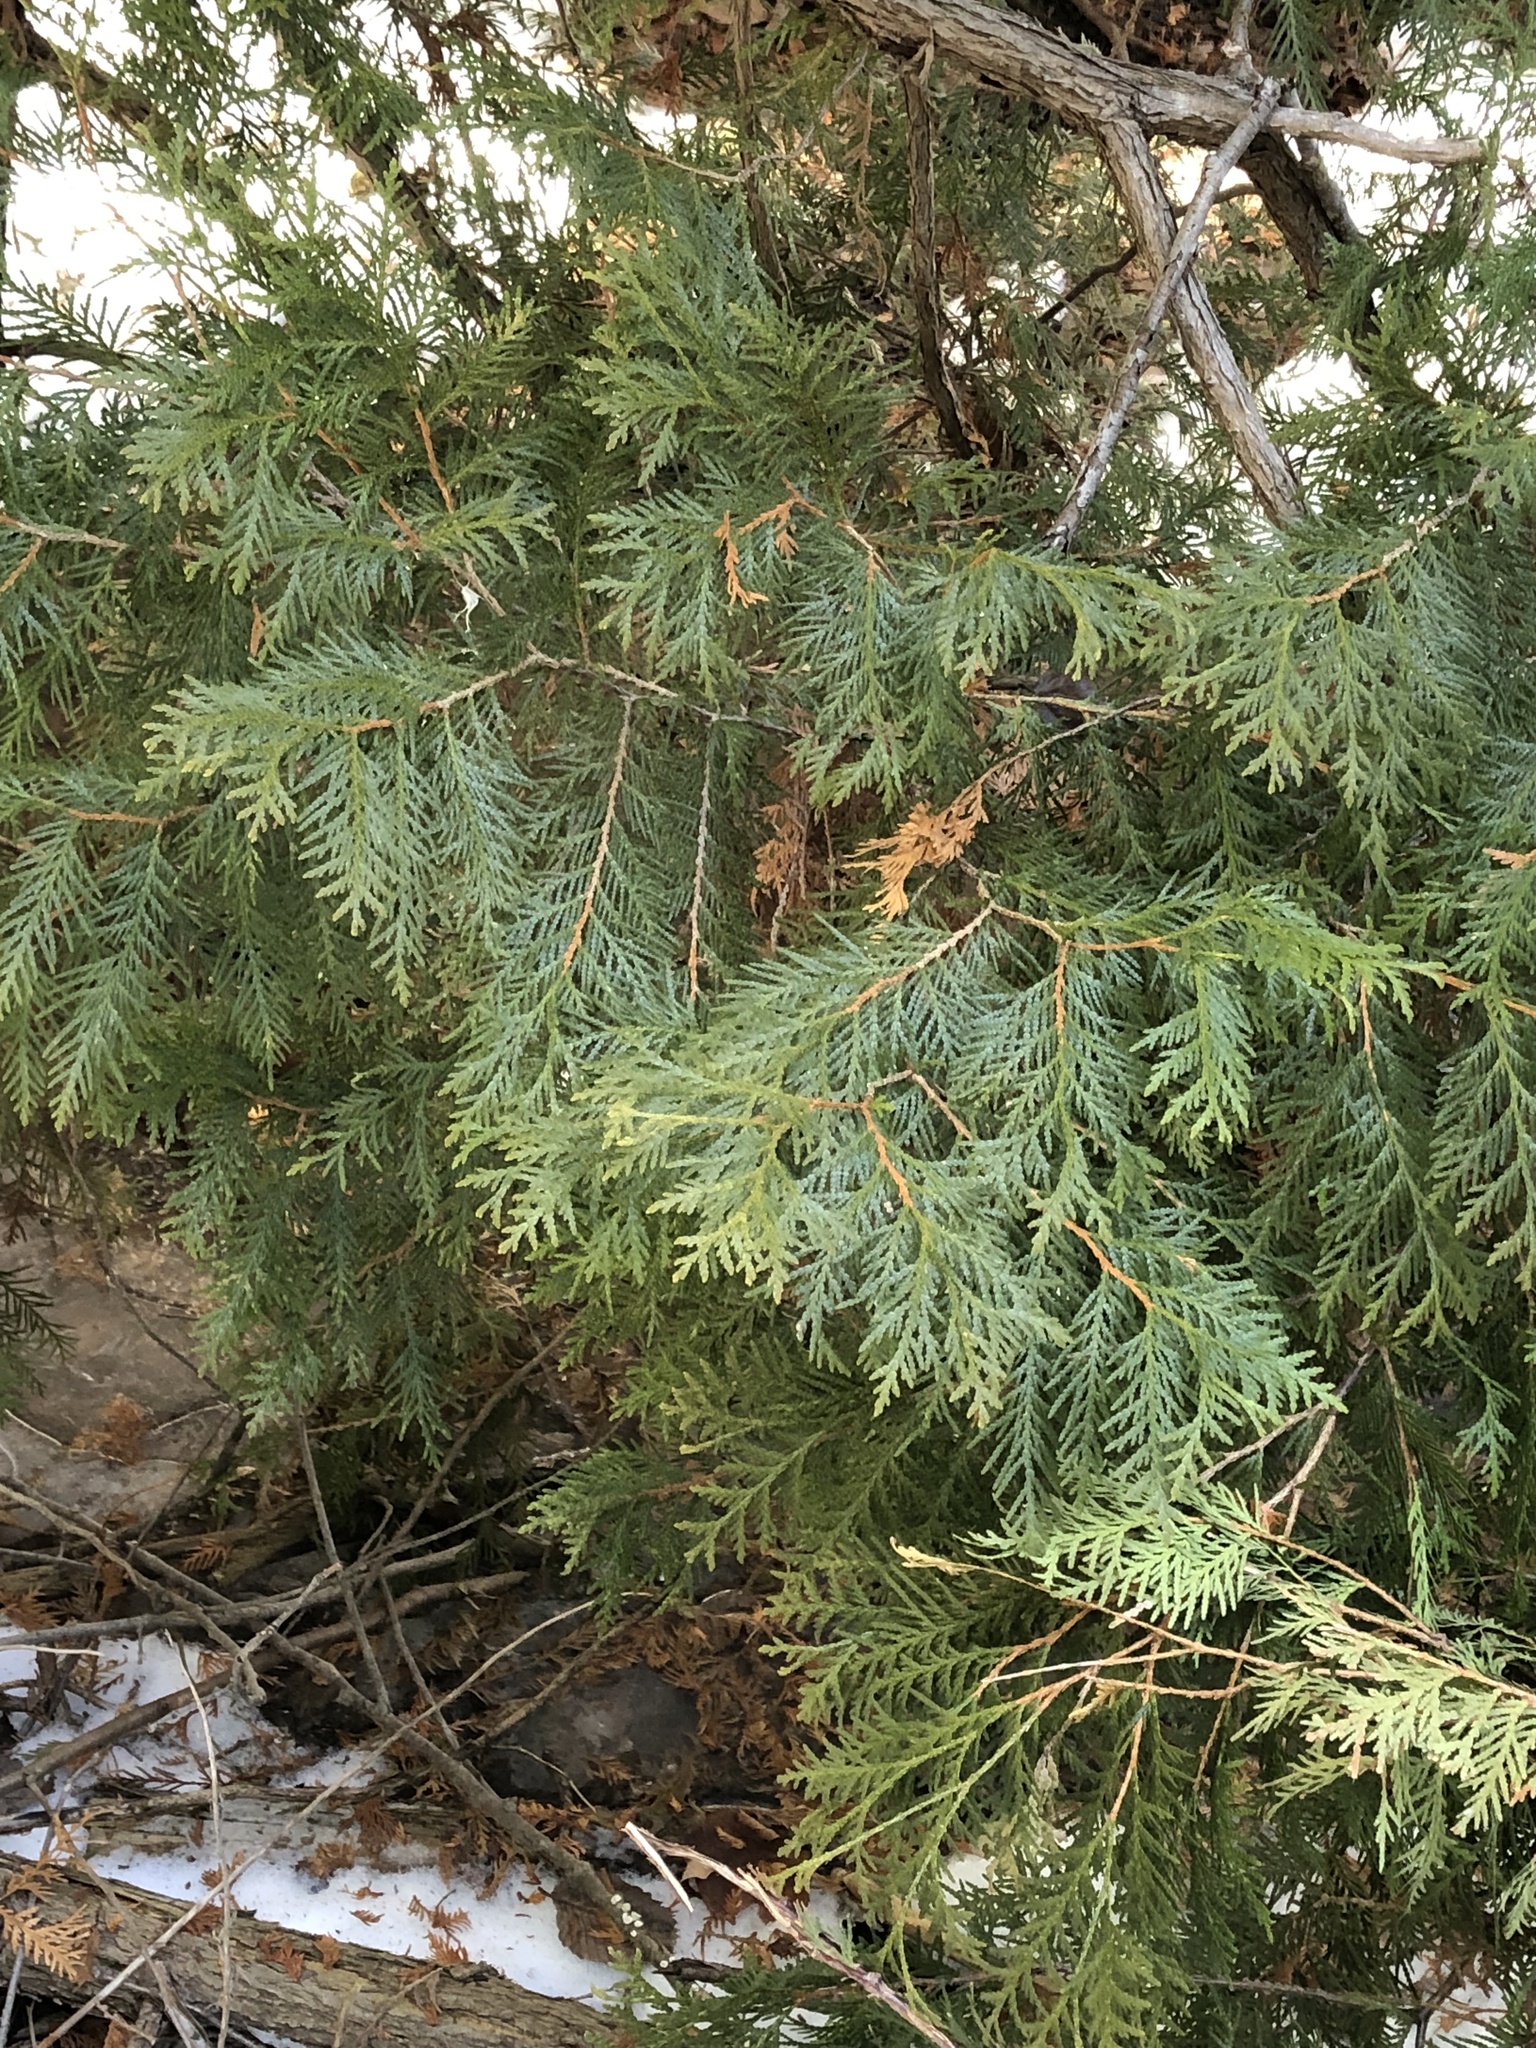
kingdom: Plantae
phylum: Tracheophyta
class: Pinopsida
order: Pinales
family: Cupressaceae
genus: Thuja
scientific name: Thuja occidentalis
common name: Northern white-cedar
